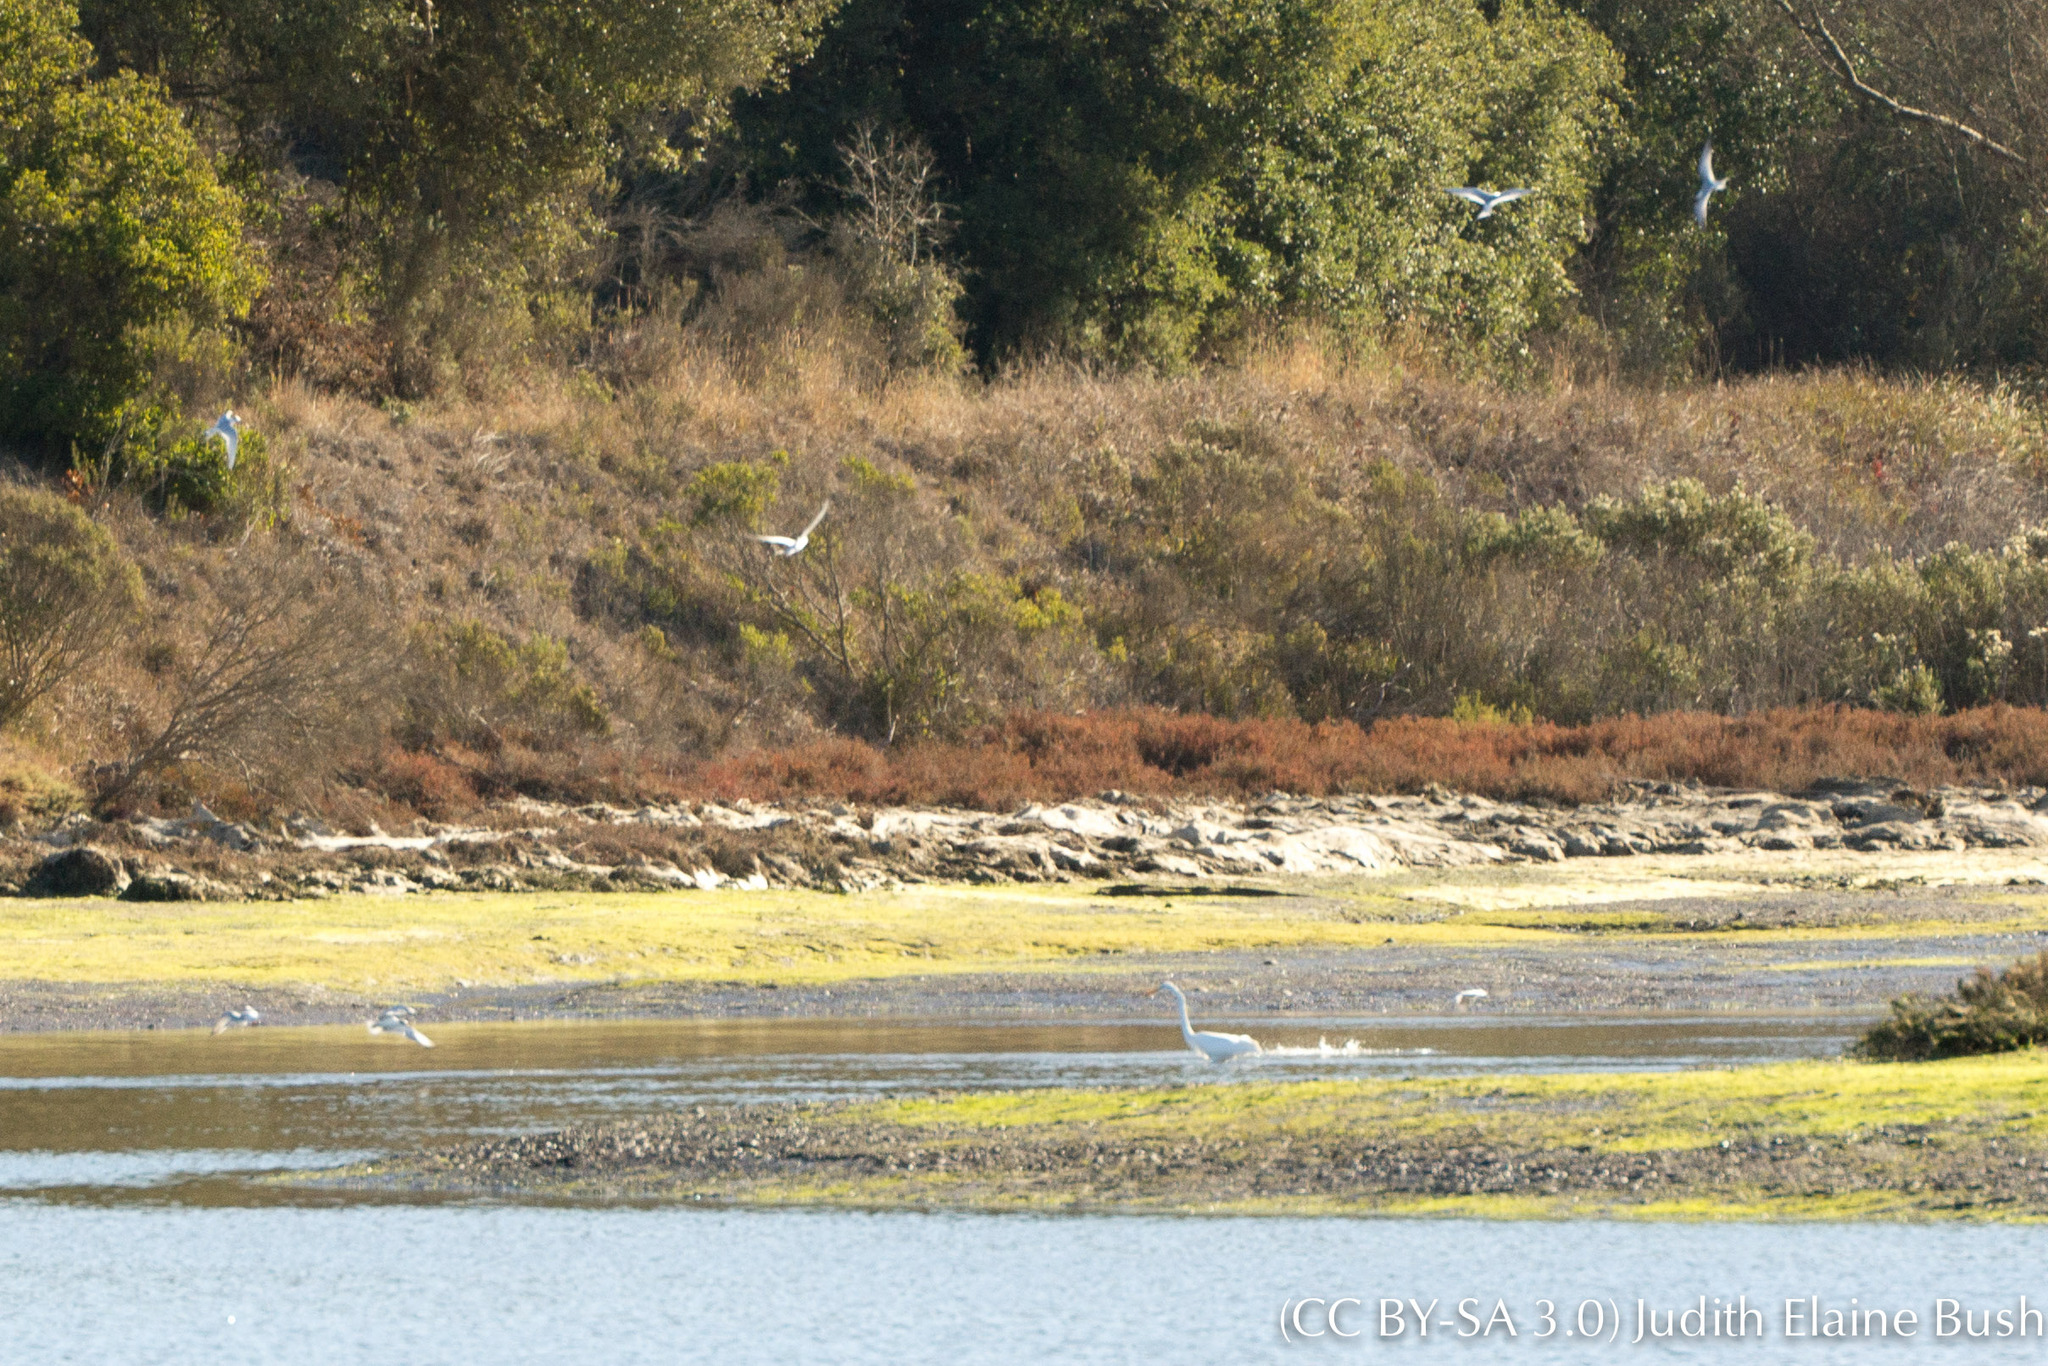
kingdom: Animalia
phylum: Chordata
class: Aves
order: Pelecaniformes
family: Ardeidae
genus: Ardea
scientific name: Ardea alba
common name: Great egret
